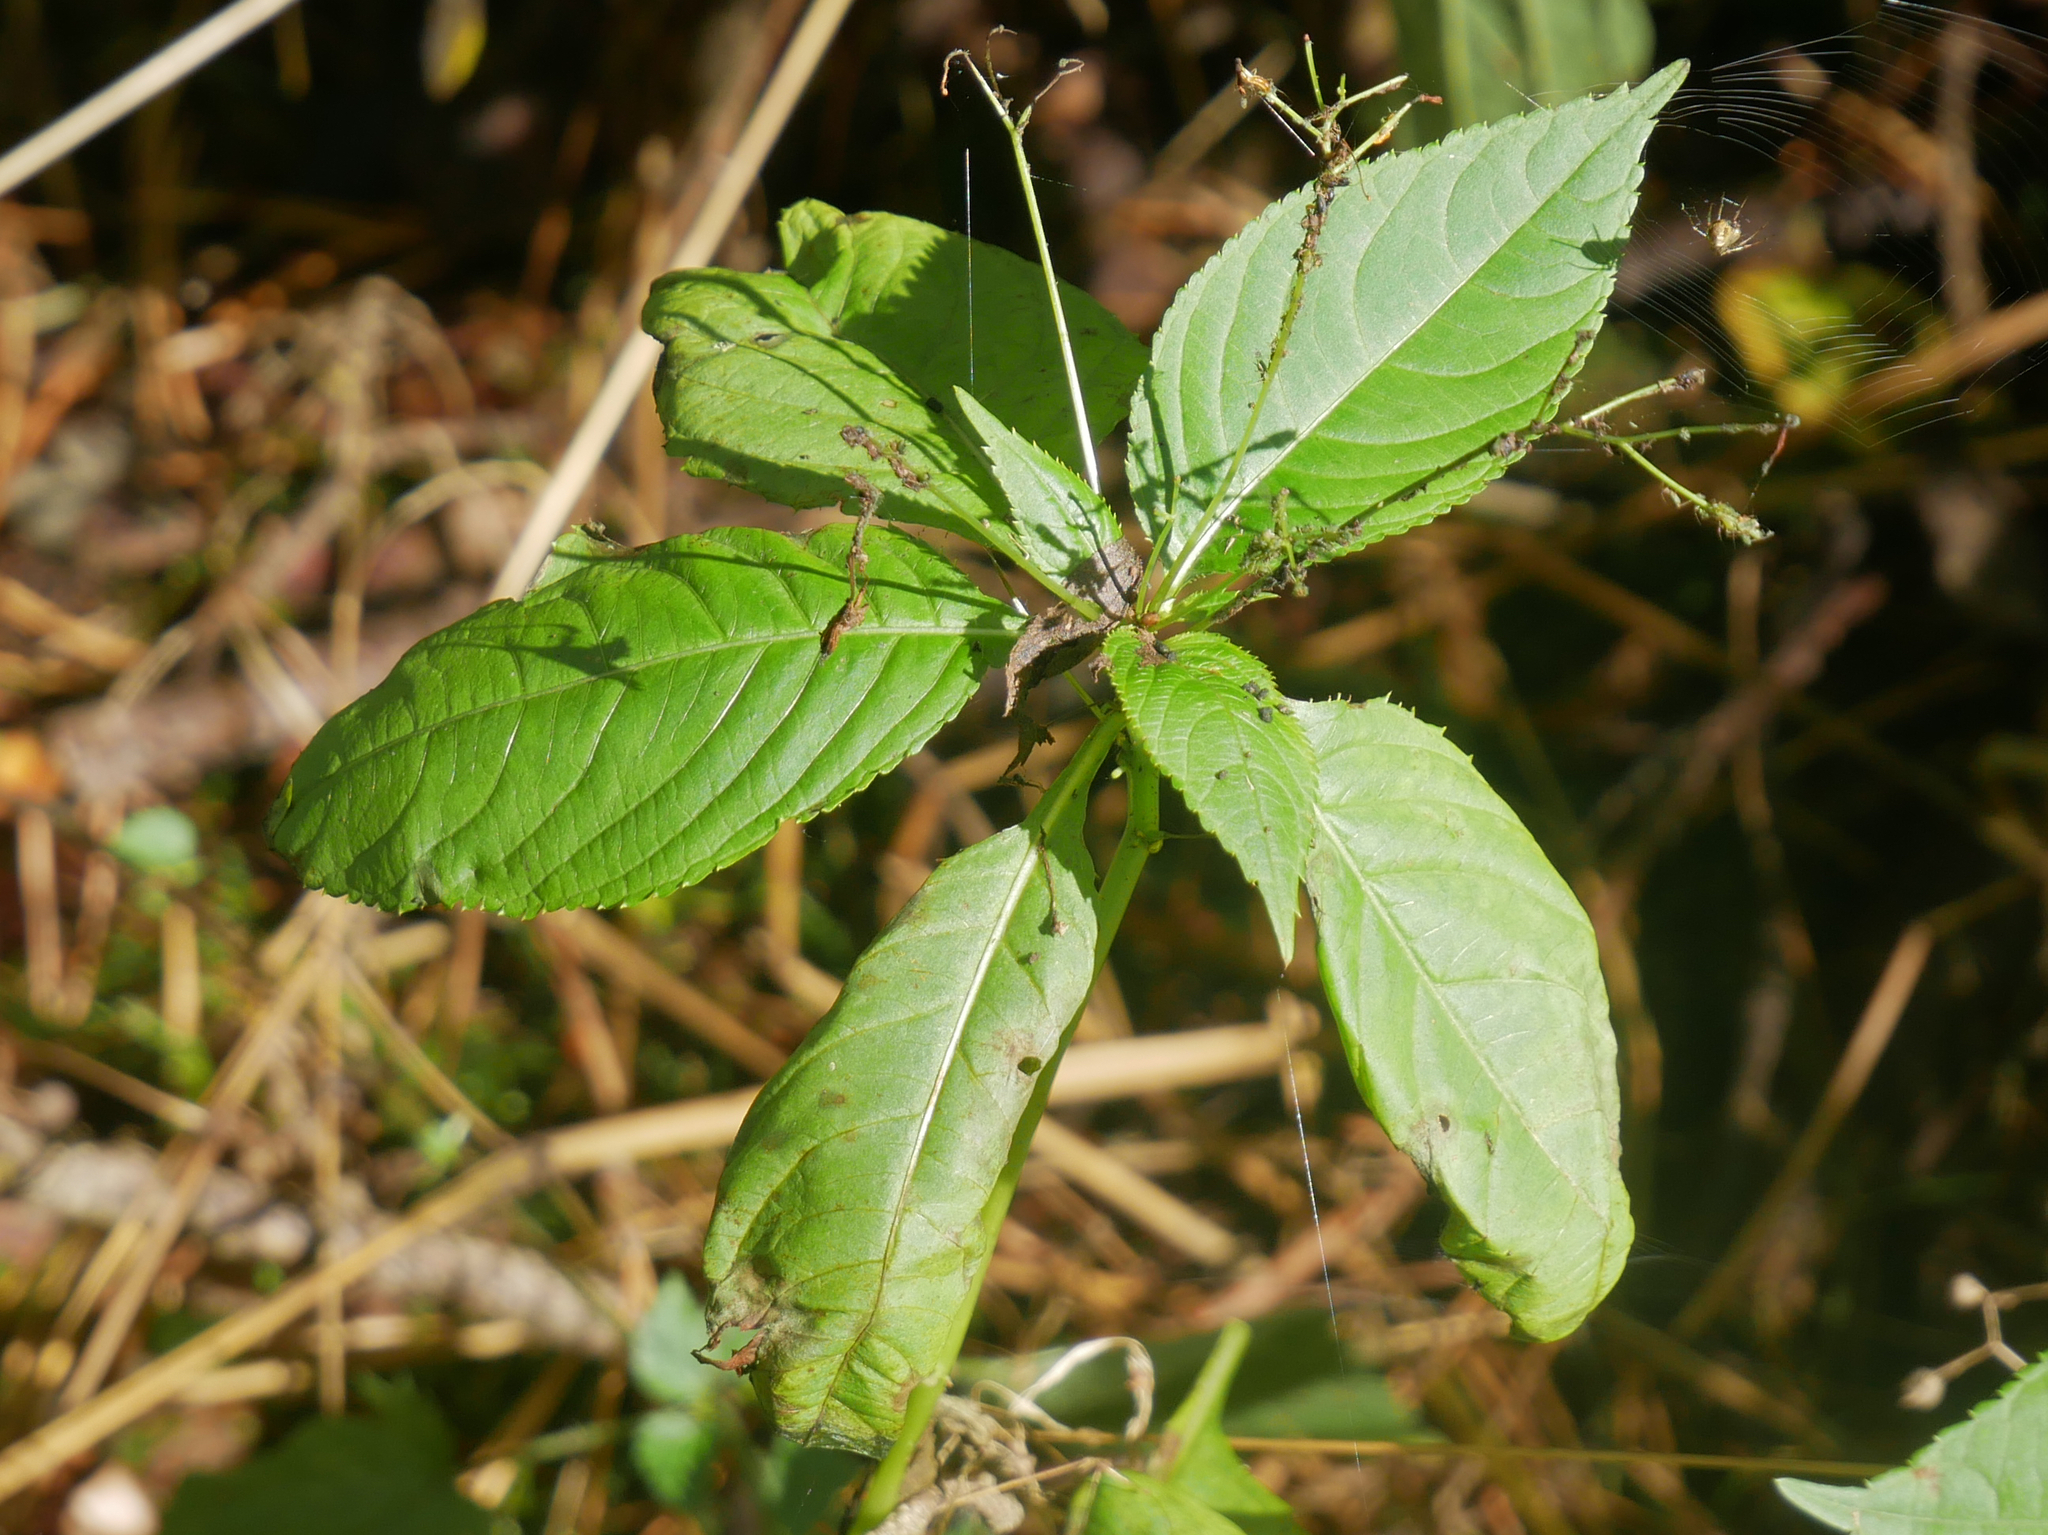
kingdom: Plantae
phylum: Tracheophyta
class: Magnoliopsida
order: Ericales
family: Balsaminaceae
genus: Impatiens
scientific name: Impatiens parviflora
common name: Small balsam
